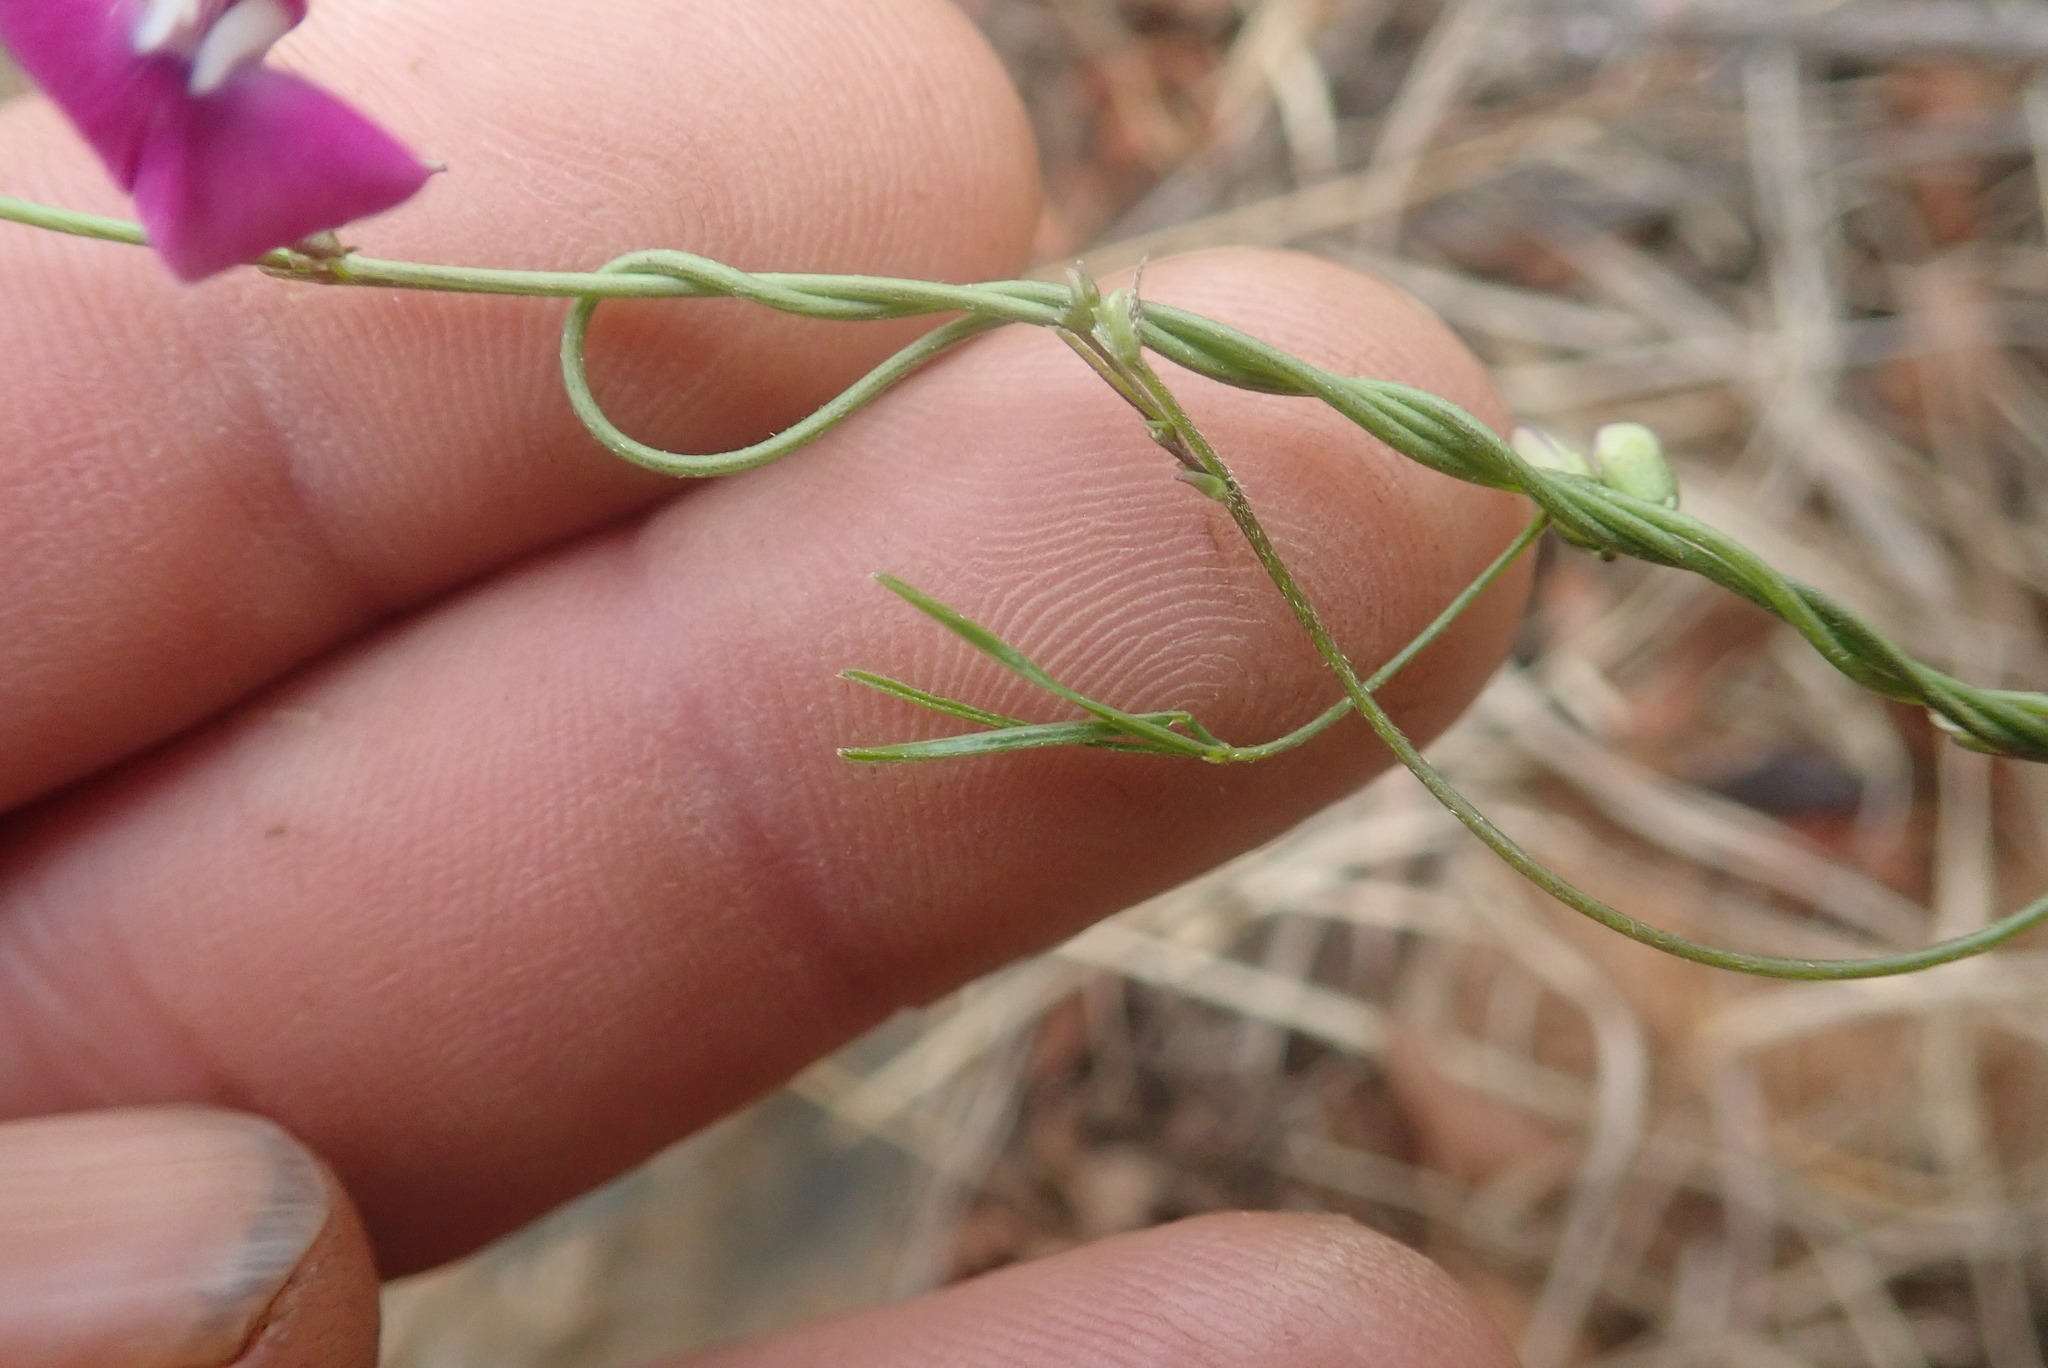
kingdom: Plantae
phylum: Tracheophyta
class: Magnoliopsida
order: Fabales
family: Fabaceae
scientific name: Fabaceae
